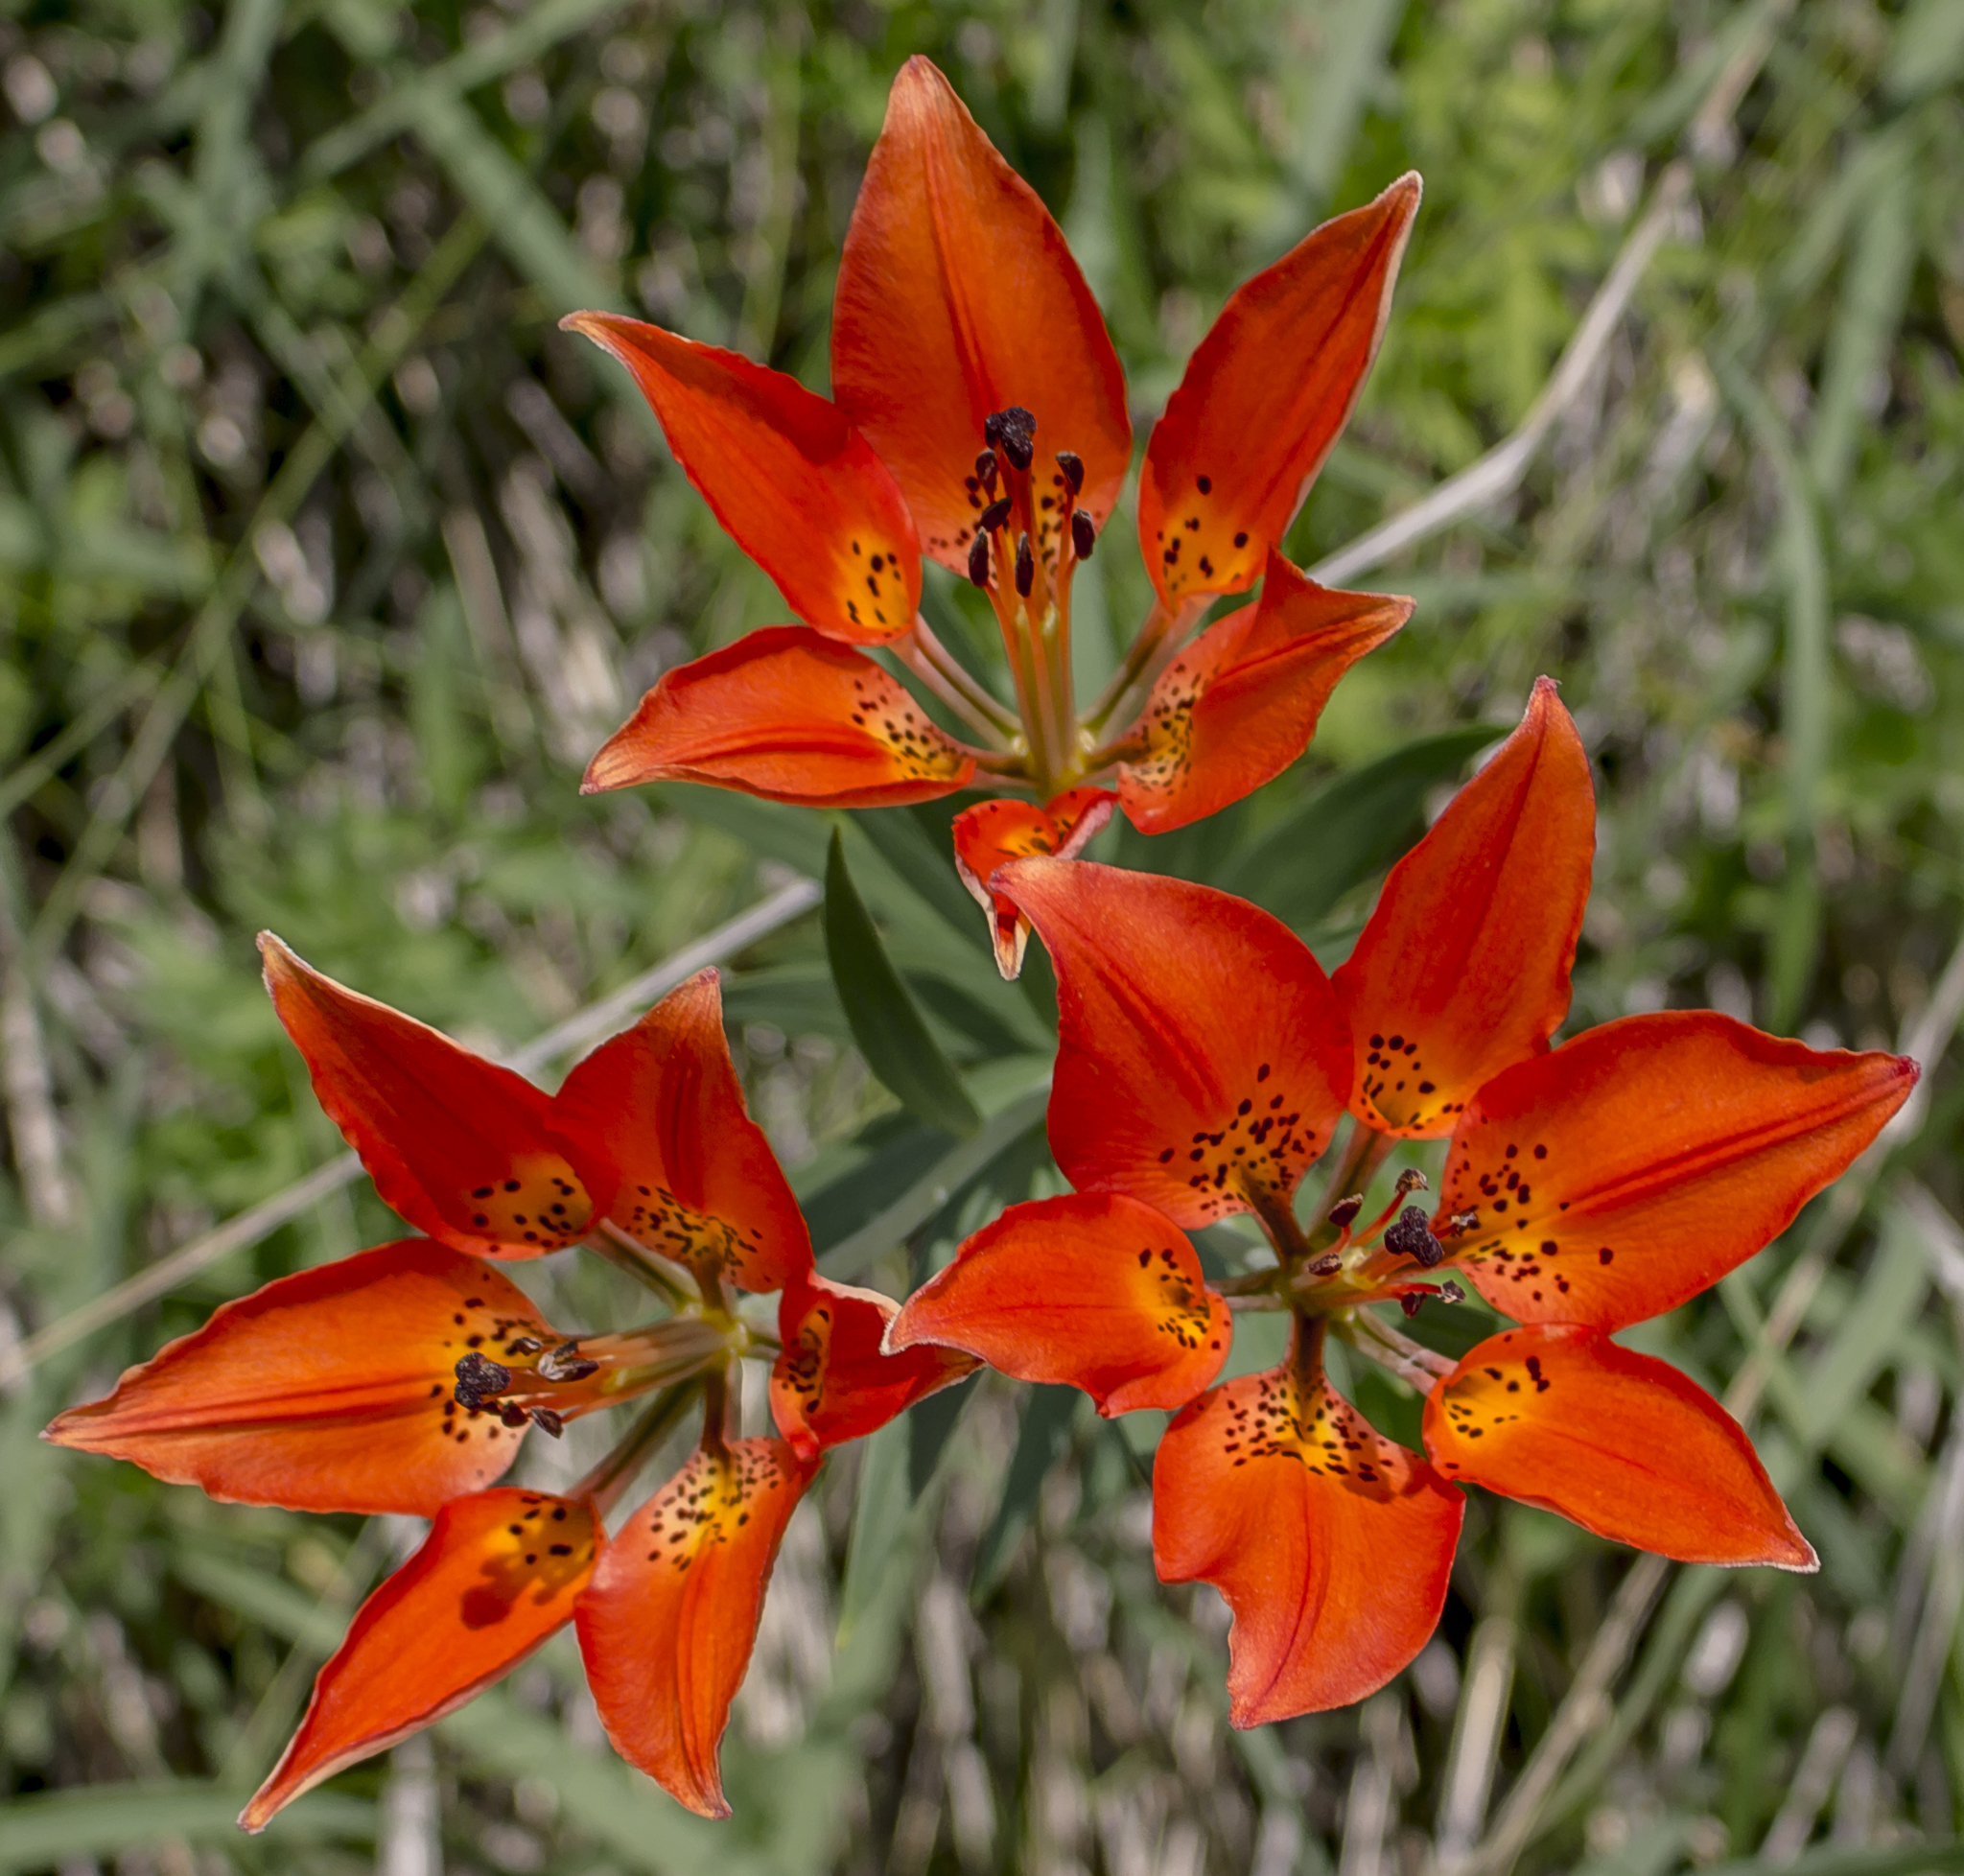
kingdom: Plantae
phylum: Tracheophyta
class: Liliopsida
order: Liliales
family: Liliaceae
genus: Lilium
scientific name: Lilium philadelphicum
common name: Red lily
